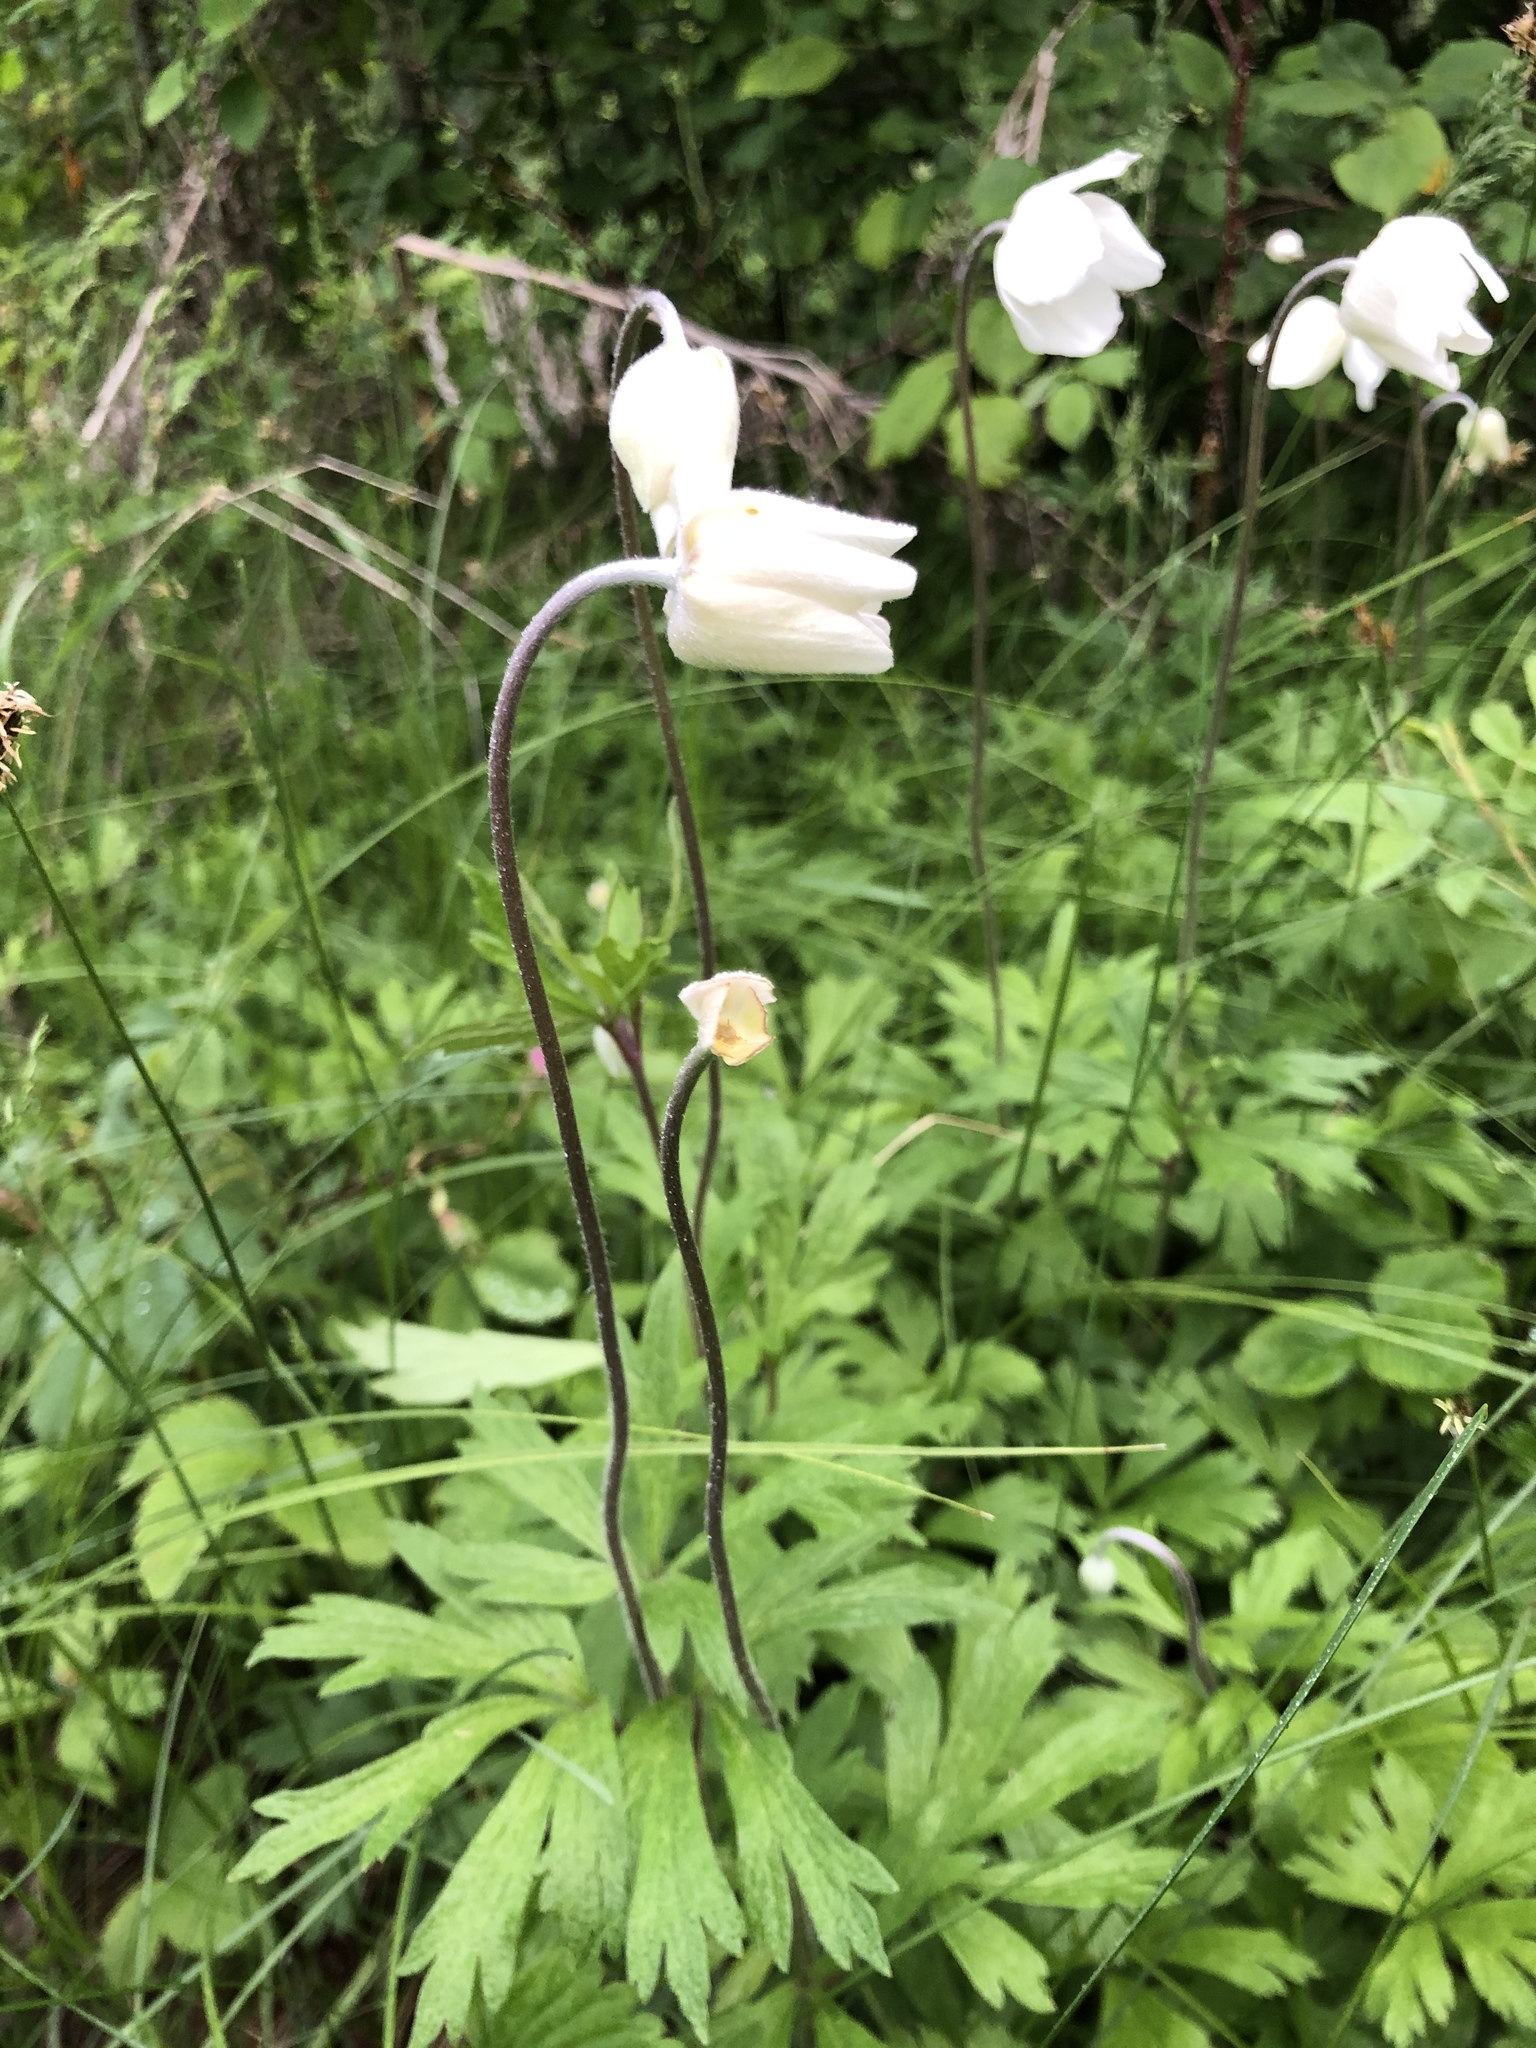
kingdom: Plantae
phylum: Tracheophyta
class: Magnoliopsida
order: Ranunculales
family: Ranunculaceae
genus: Anemone
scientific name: Anemone sylvestris
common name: Snowdrop anemone
